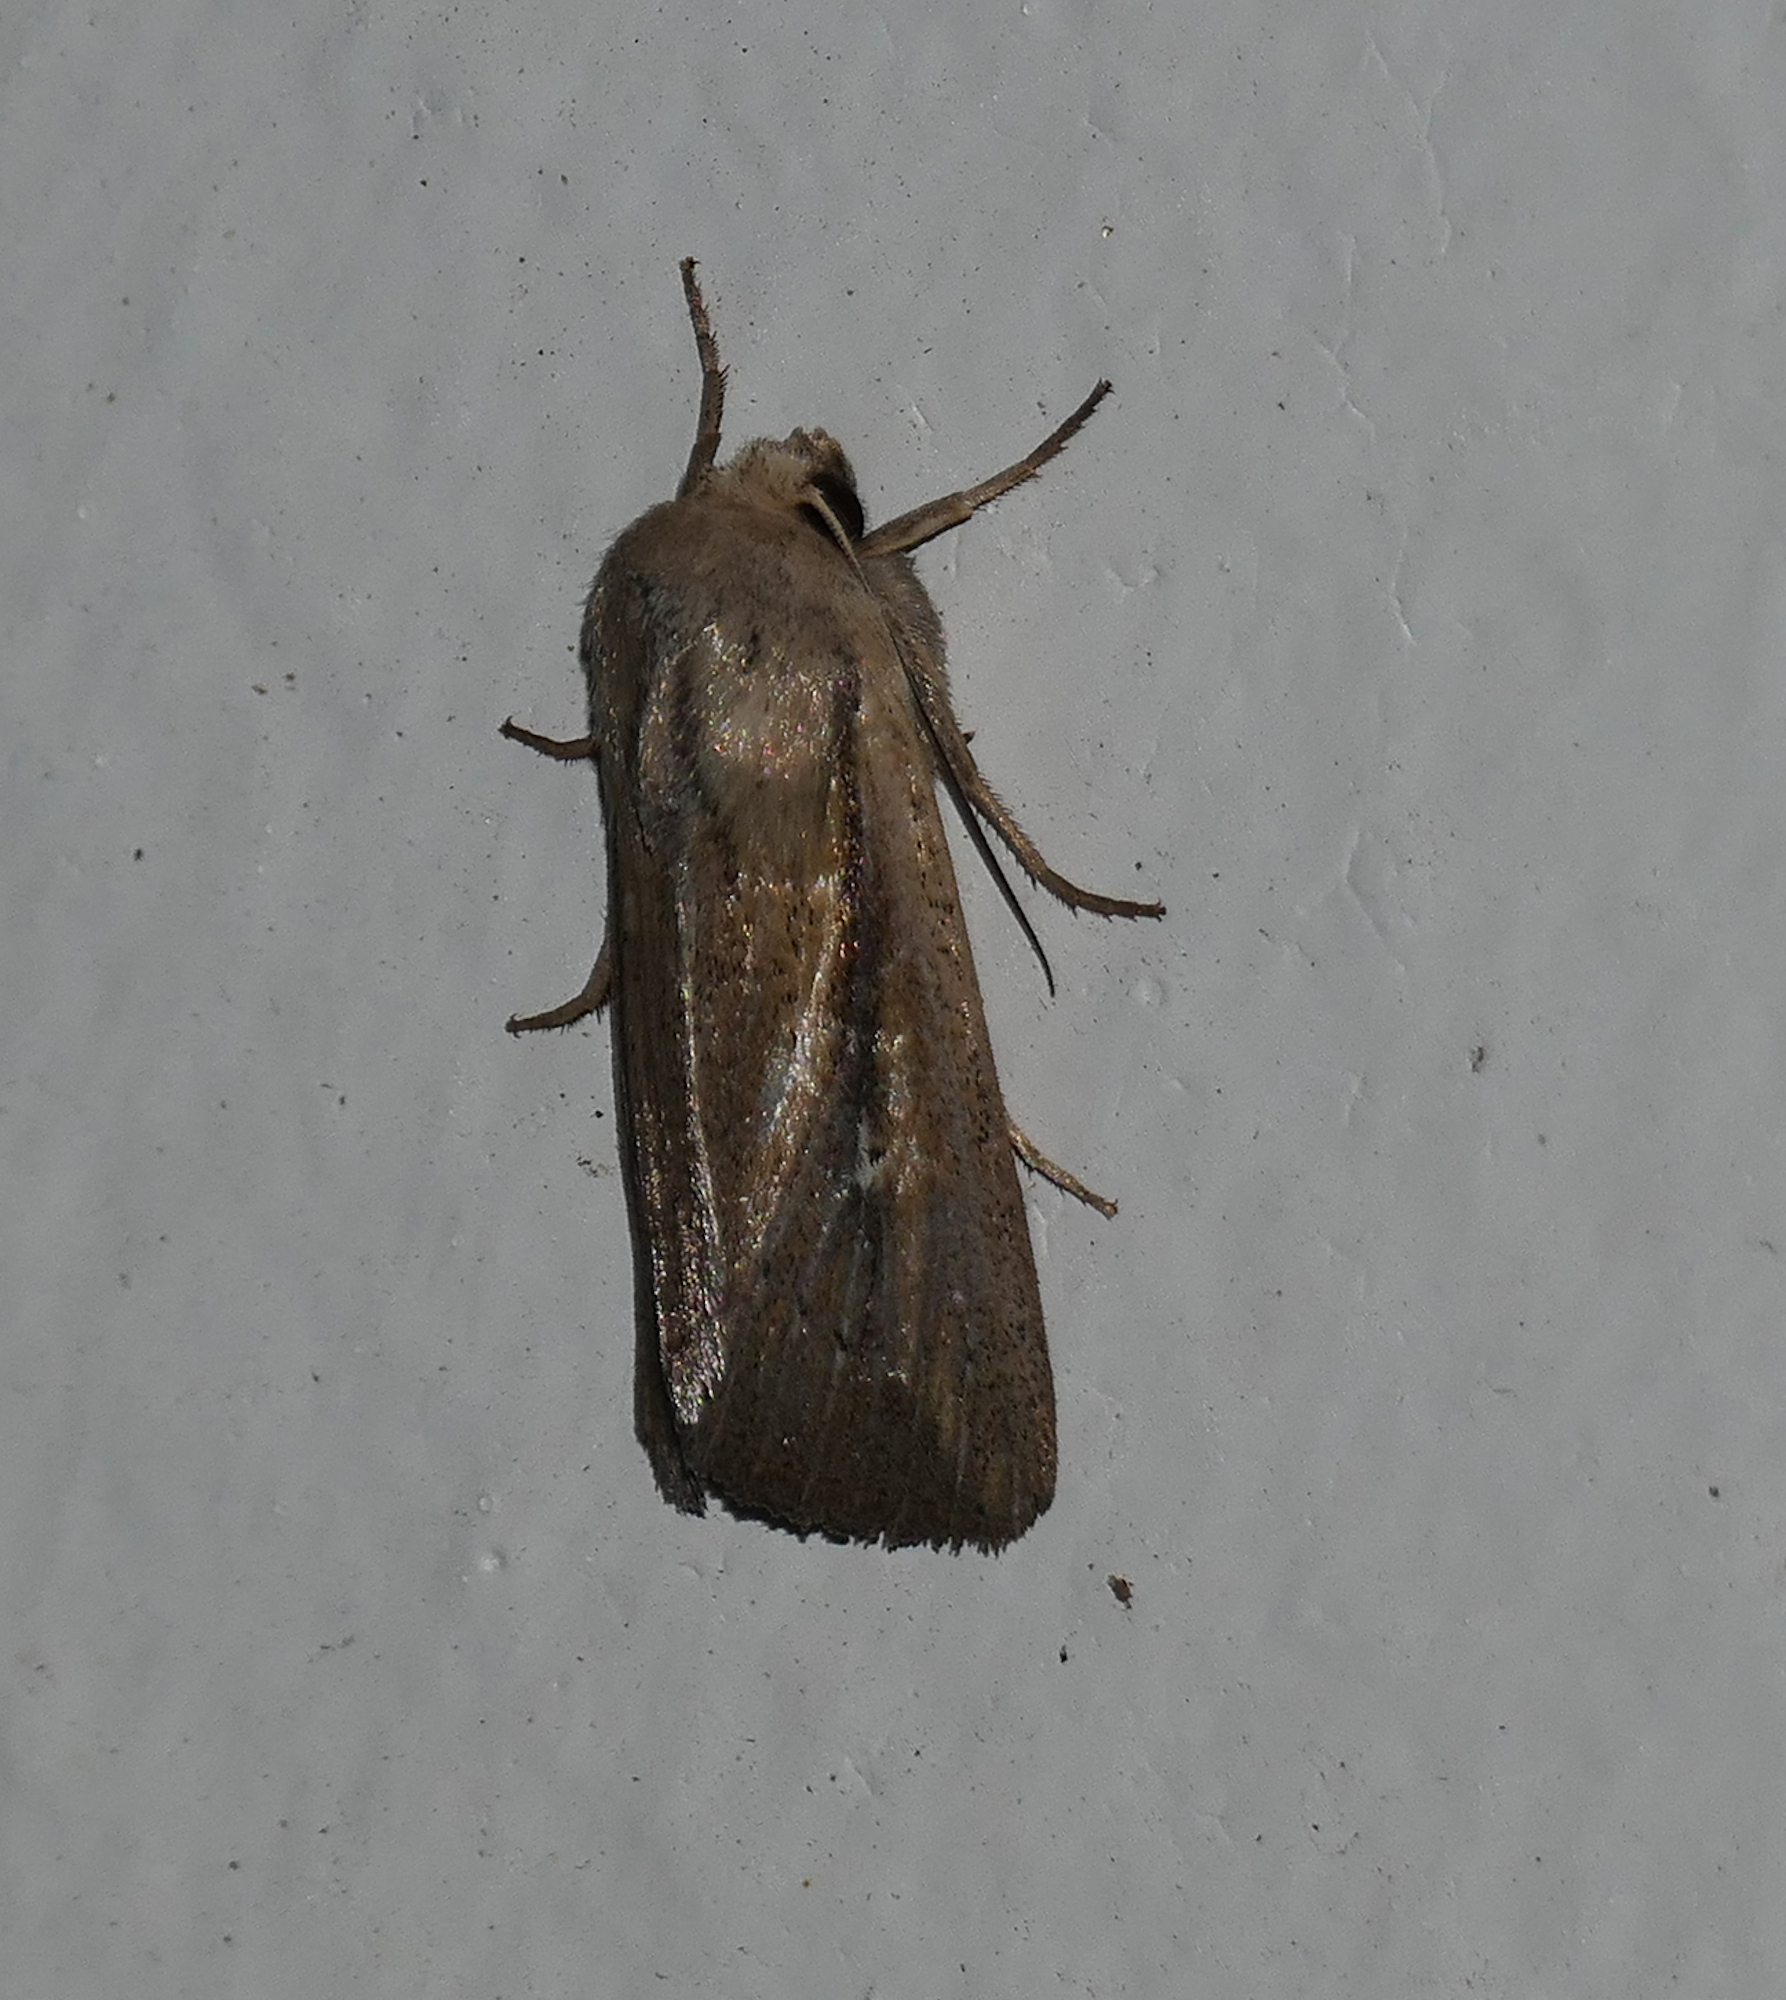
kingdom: Animalia
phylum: Arthropoda
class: Insecta
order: Lepidoptera
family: Noctuidae
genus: Leucania
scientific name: Leucania imperfecta
